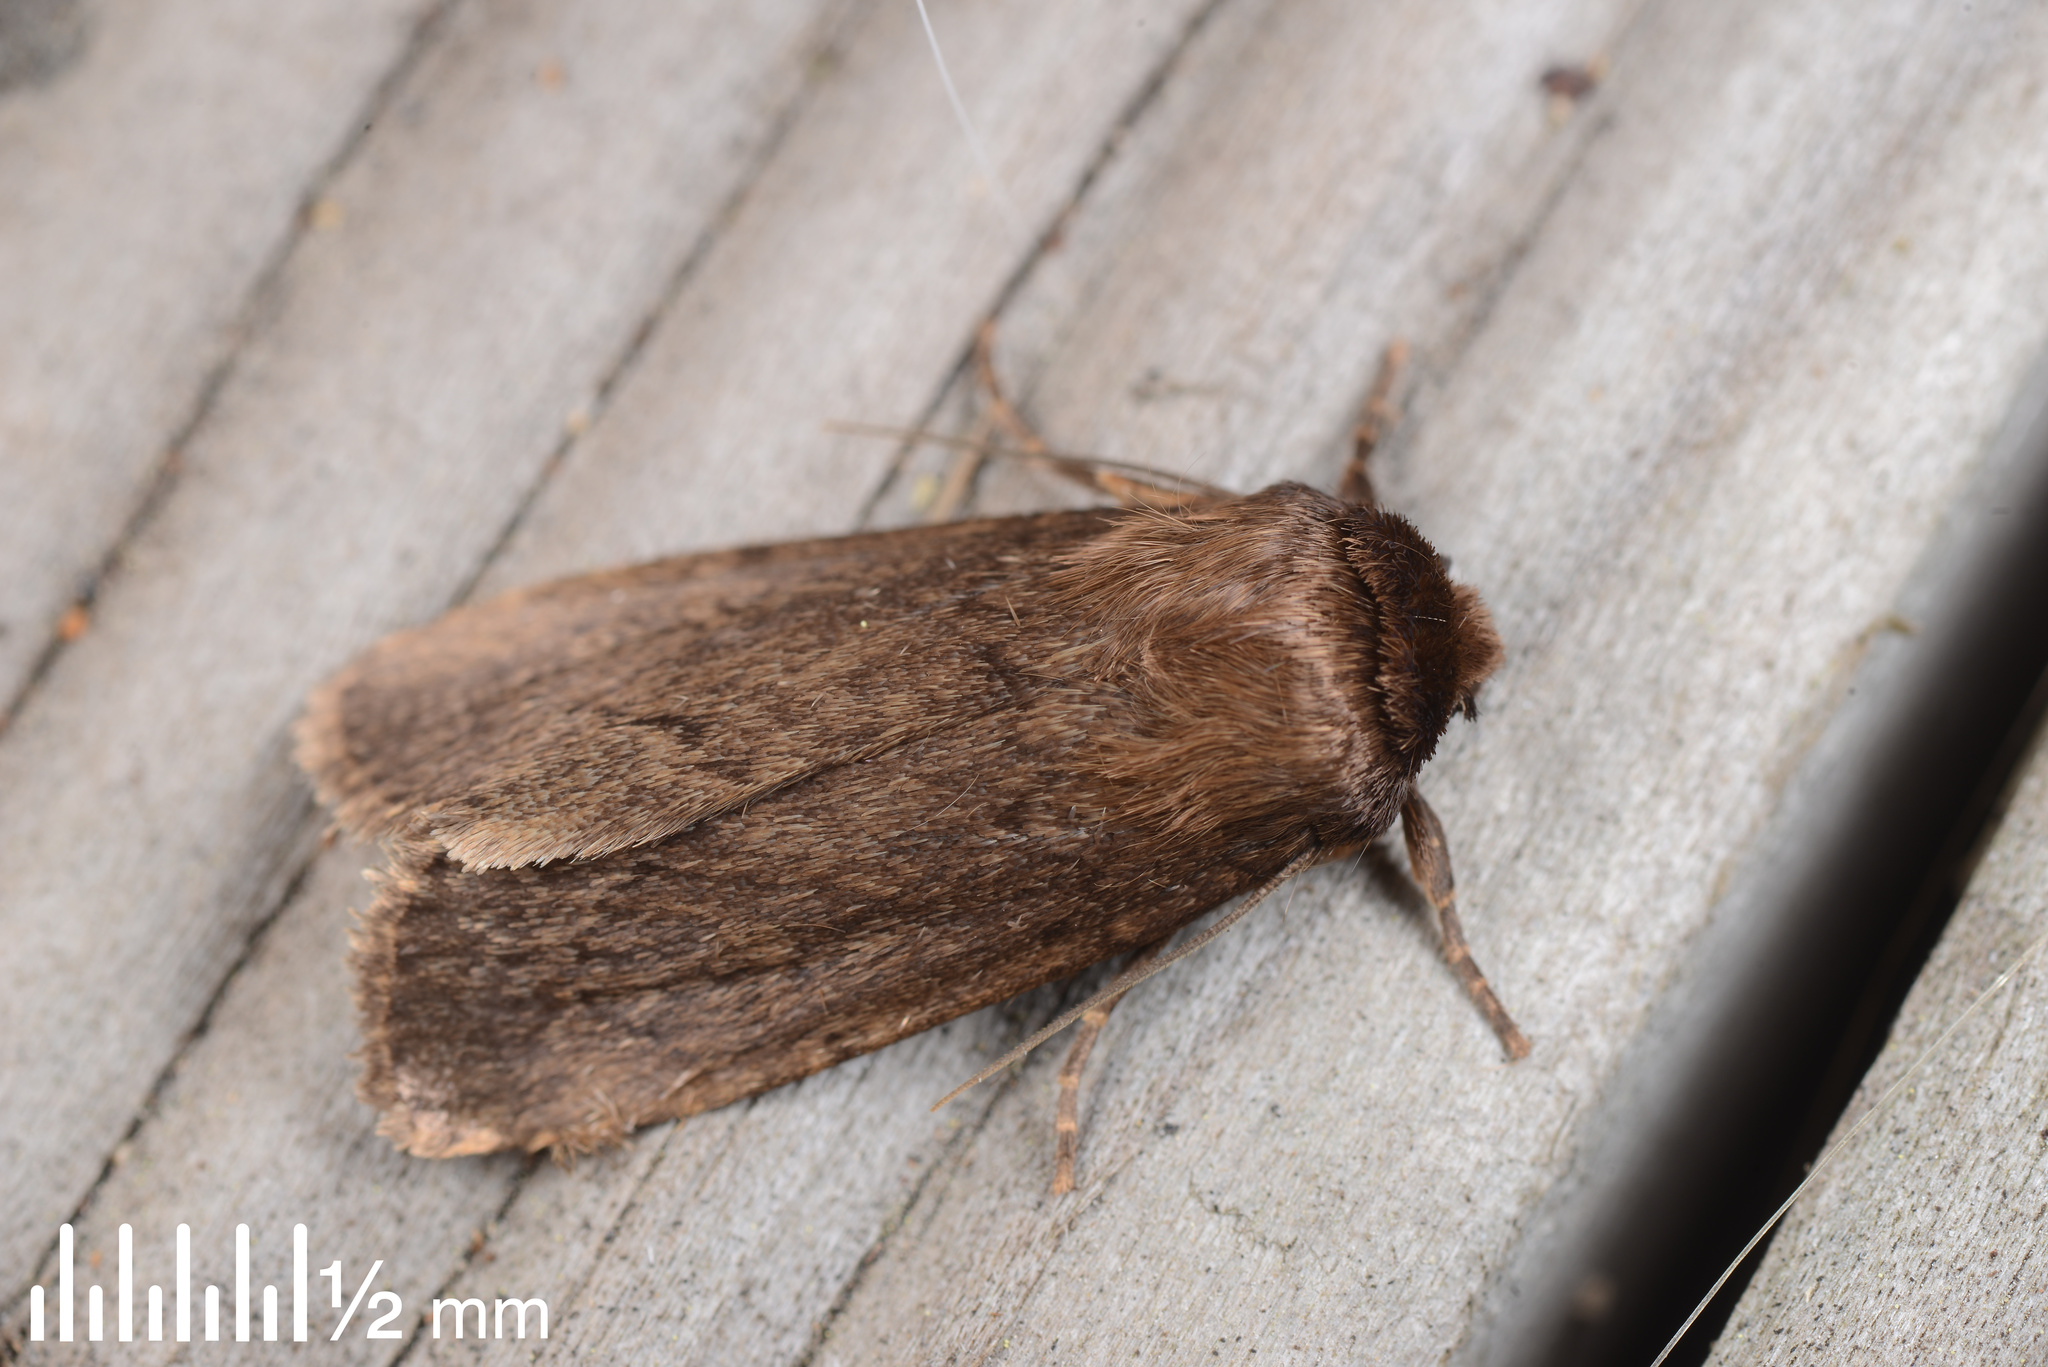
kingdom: Animalia
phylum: Arthropoda
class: Insecta
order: Lepidoptera
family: Noctuidae
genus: Bityla
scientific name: Bityla defigurata
